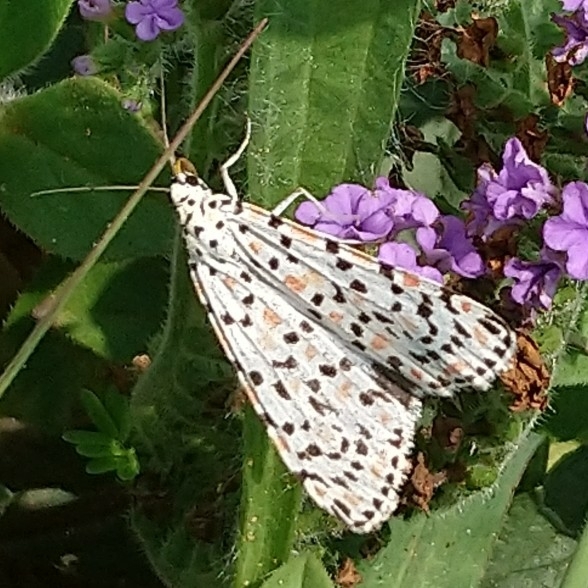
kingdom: Animalia
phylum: Arthropoda
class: Insecta
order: Lepidoptera
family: Erebidae
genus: Utetheisa
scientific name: Utetheisa pulchella
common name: Crimson speckled
